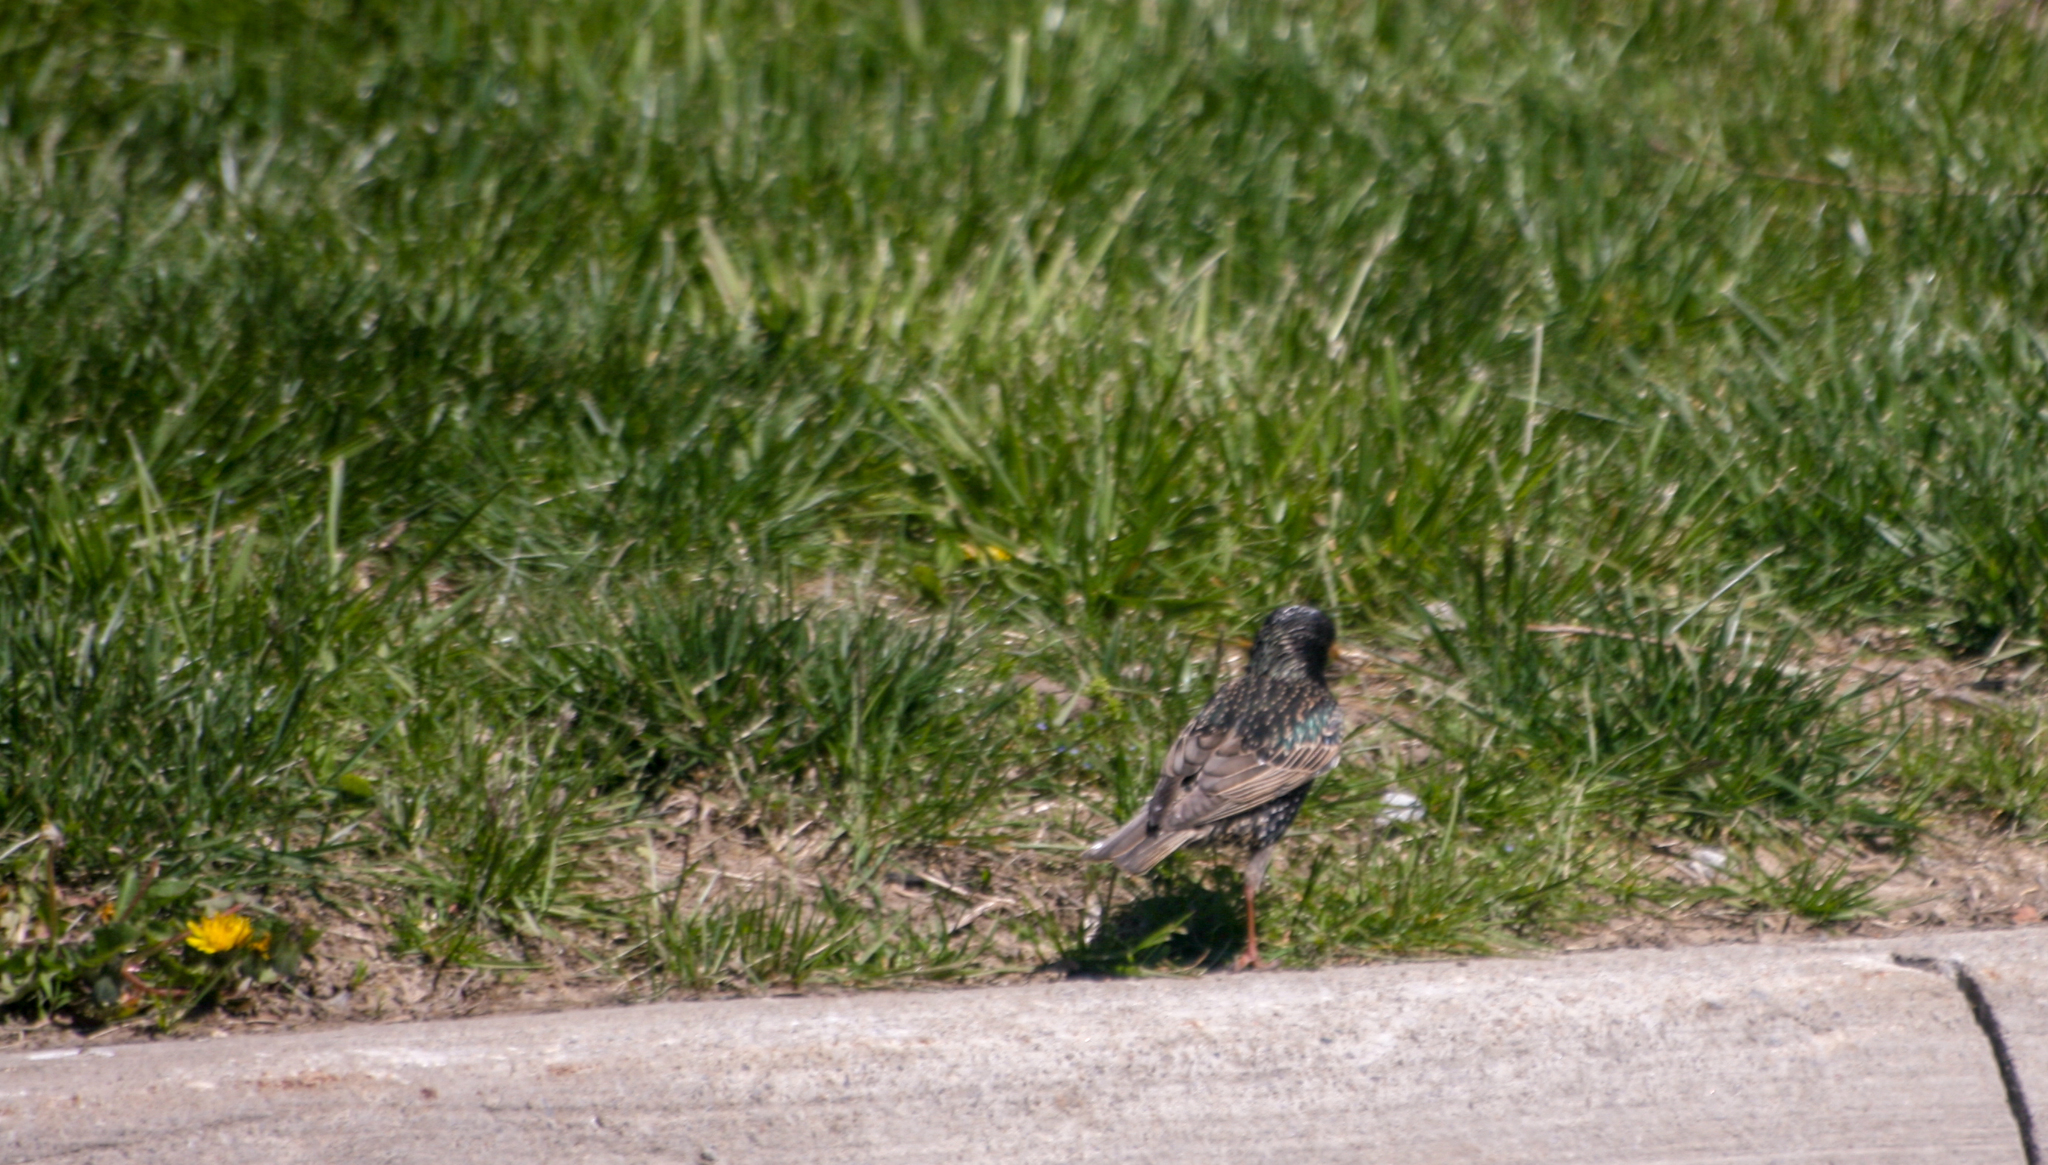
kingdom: Animalia
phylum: Chordata
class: Aves
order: Passeriformes
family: Sturnidae
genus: Sturnus
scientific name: Sturnus vulgaris
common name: Common starling
